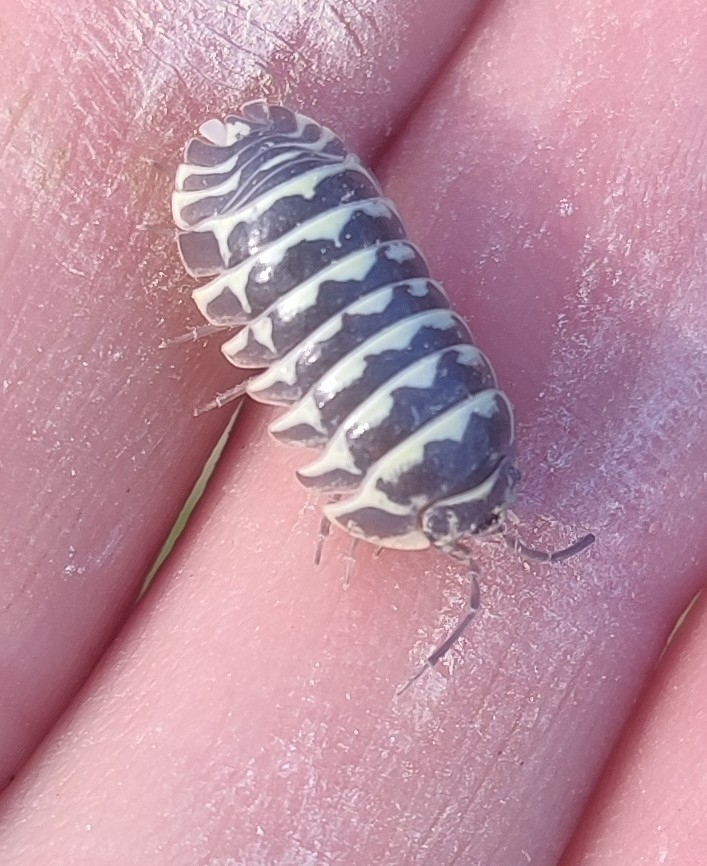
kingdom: Animalia
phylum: Arthropoda
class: Malacostraca
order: Isopoda
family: Armadillidiidae
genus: Armadillidium
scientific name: Armadillidium maculatum
